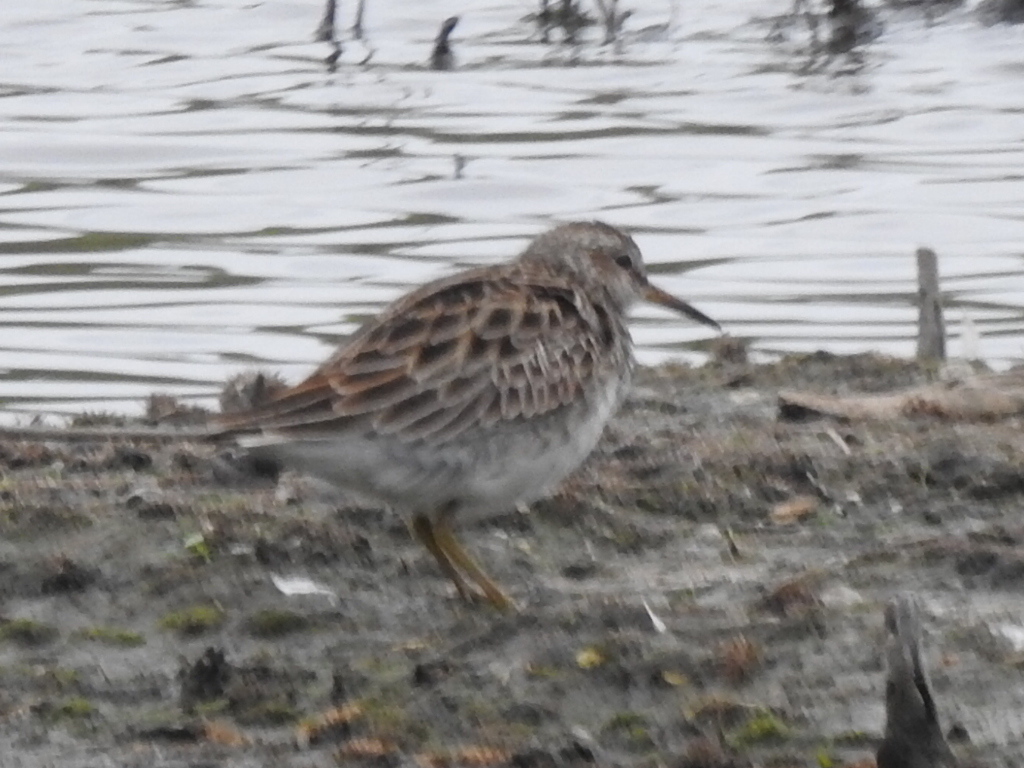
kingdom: Animalia
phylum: Chordata
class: Aves
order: Charadriiformes
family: Scolopacidae
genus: Calidris
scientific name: Calidris melanotos
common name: Pectoral sandpiper
